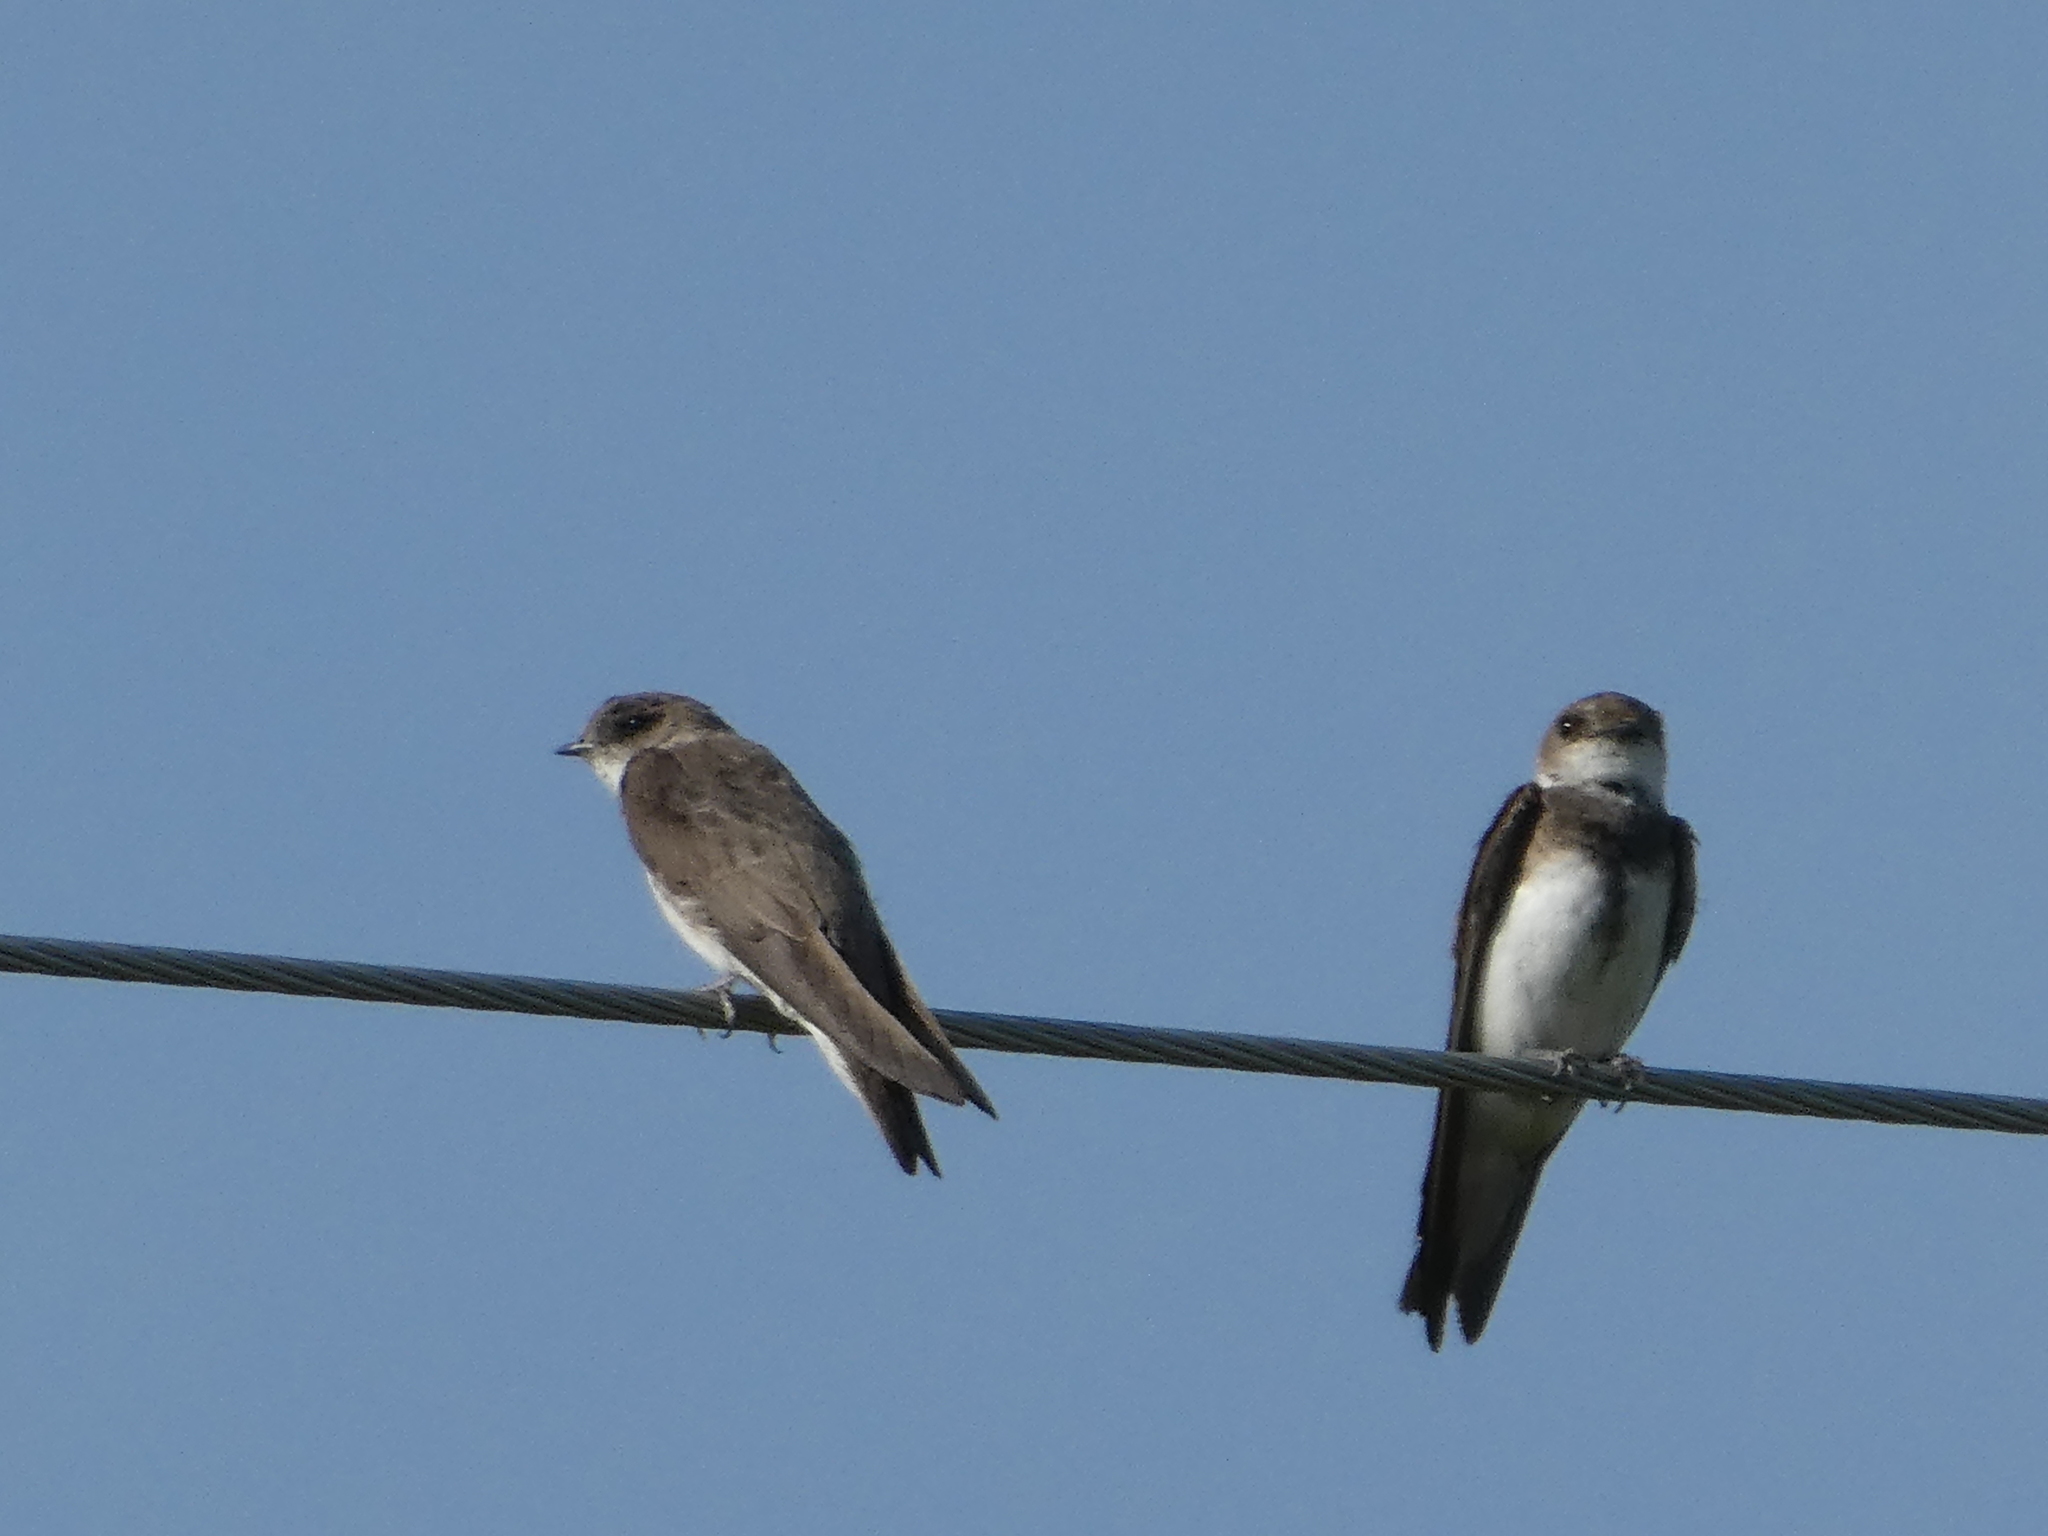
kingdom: Animalia
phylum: Chordata
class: Aves
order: Passeriformes
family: Hirundinidae
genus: Riparia
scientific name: Riparia riparia
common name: Sand martin
